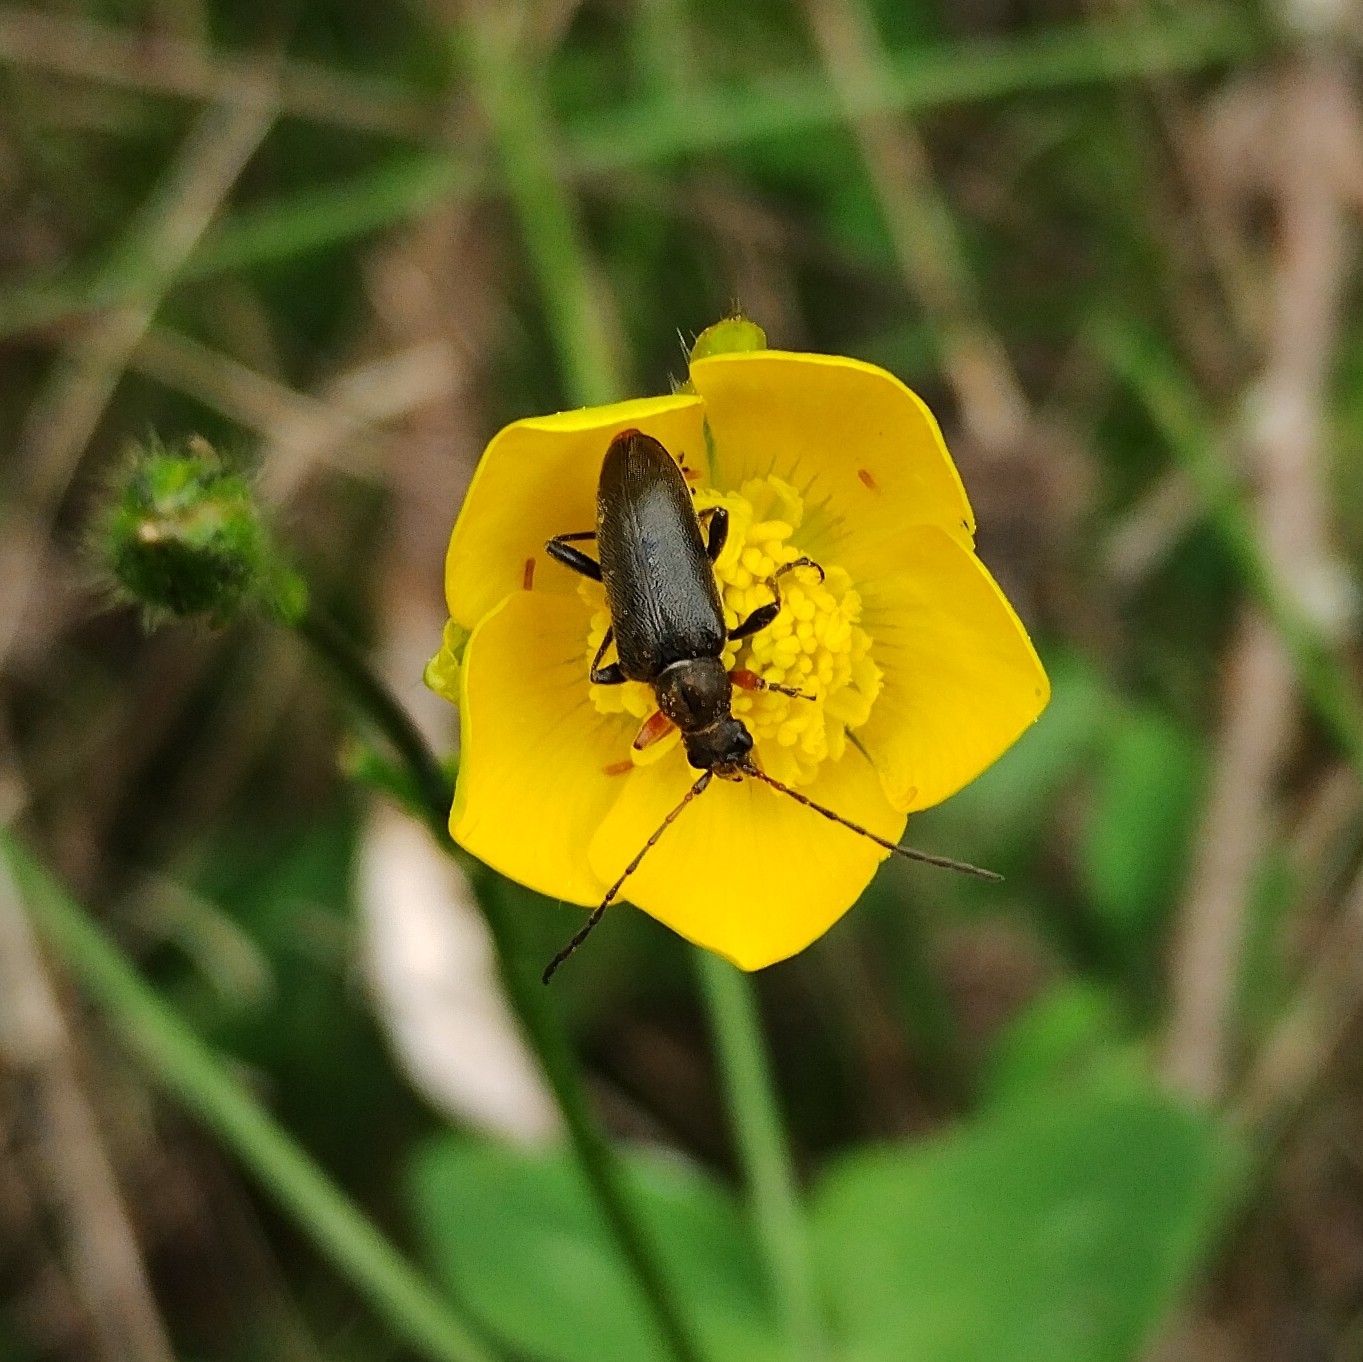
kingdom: Animalia
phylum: Arthropoda
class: Insecta
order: Coleoptera
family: Cerambycidae
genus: Cortodera
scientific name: Cortodera flavimana
